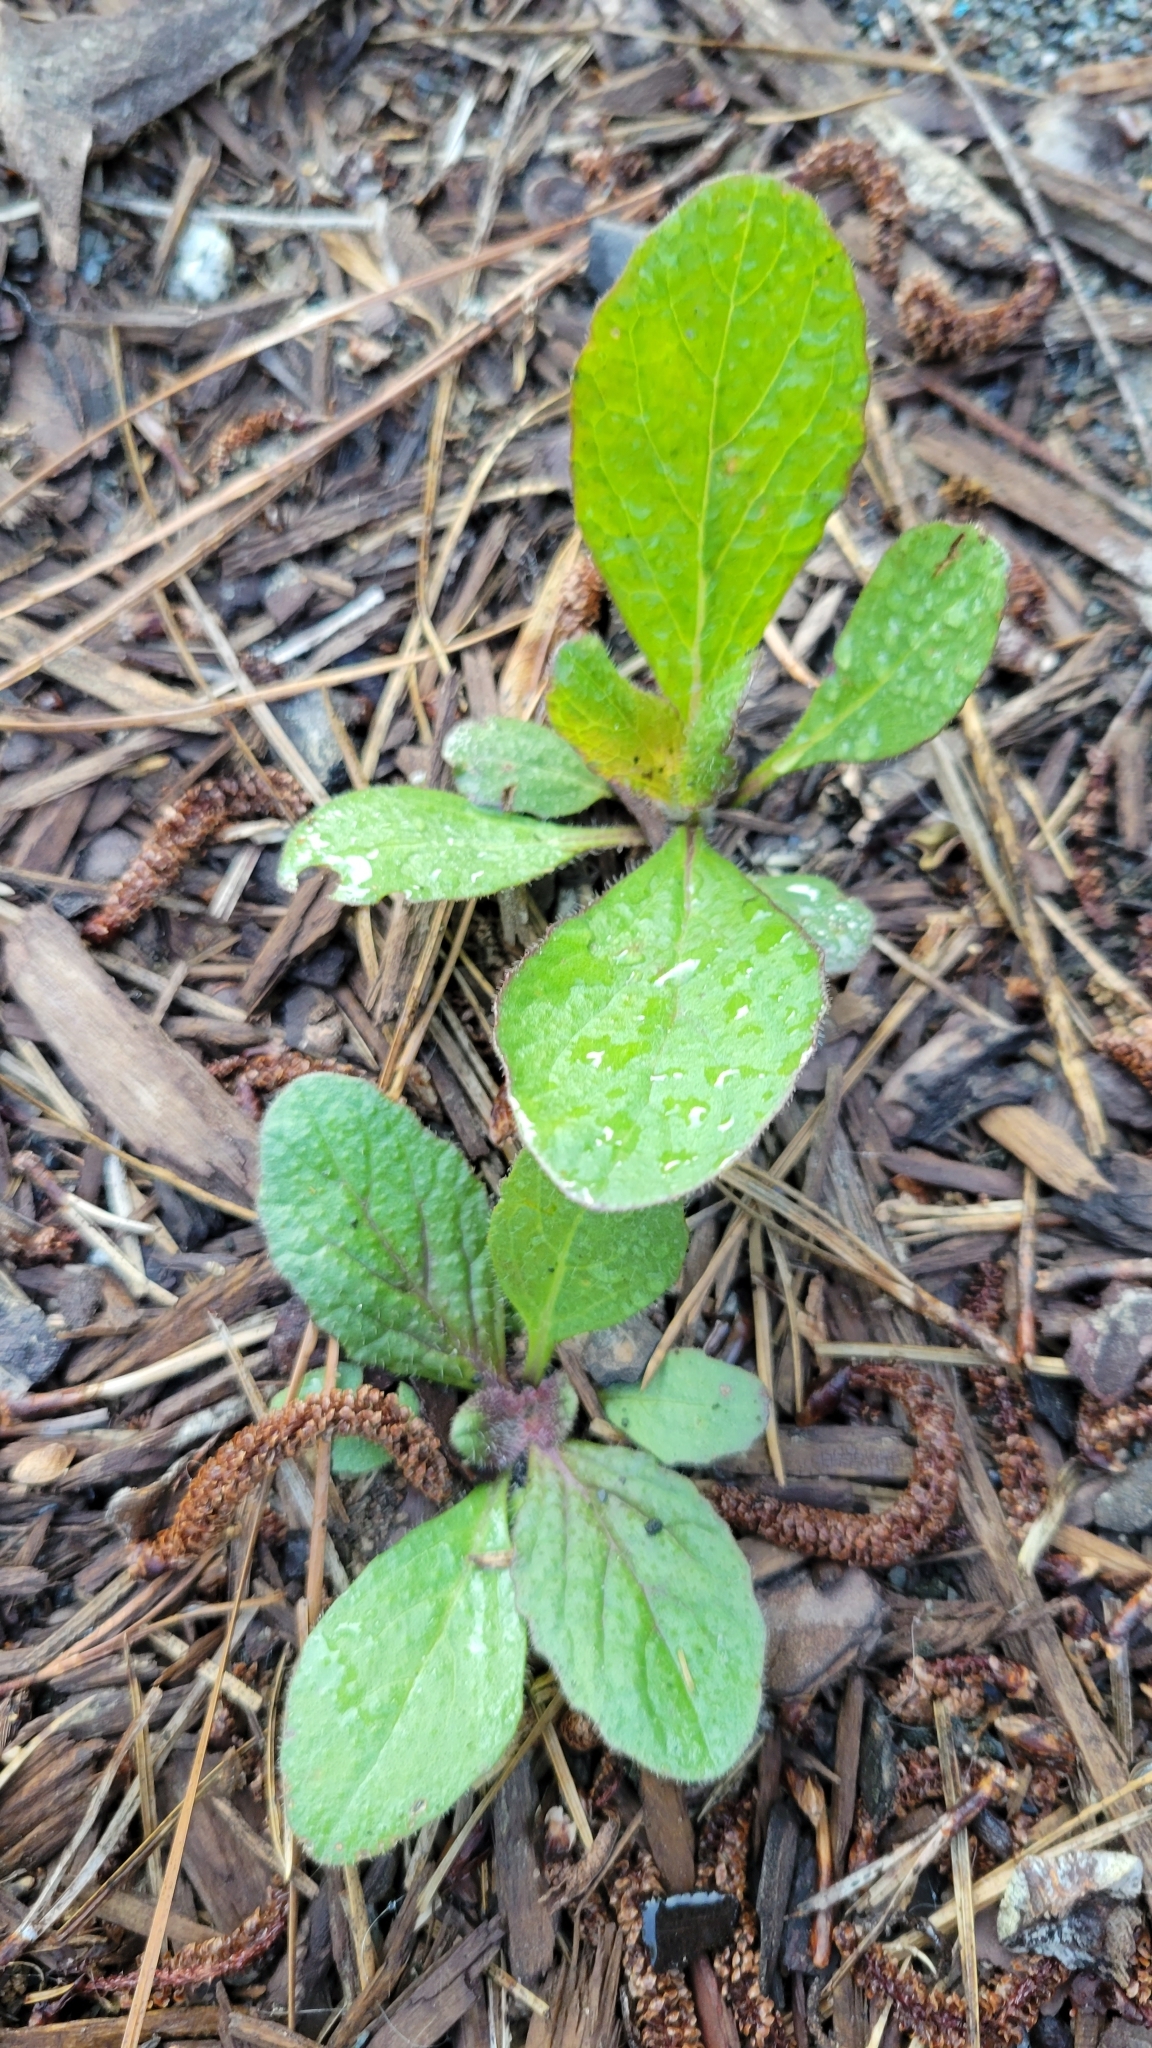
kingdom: Plantae
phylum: Tracheophyta
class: Magnoliopsida
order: Lamiales
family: Lamiaceae
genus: Salvia
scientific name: Salvia lyrata
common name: Cancerweed
